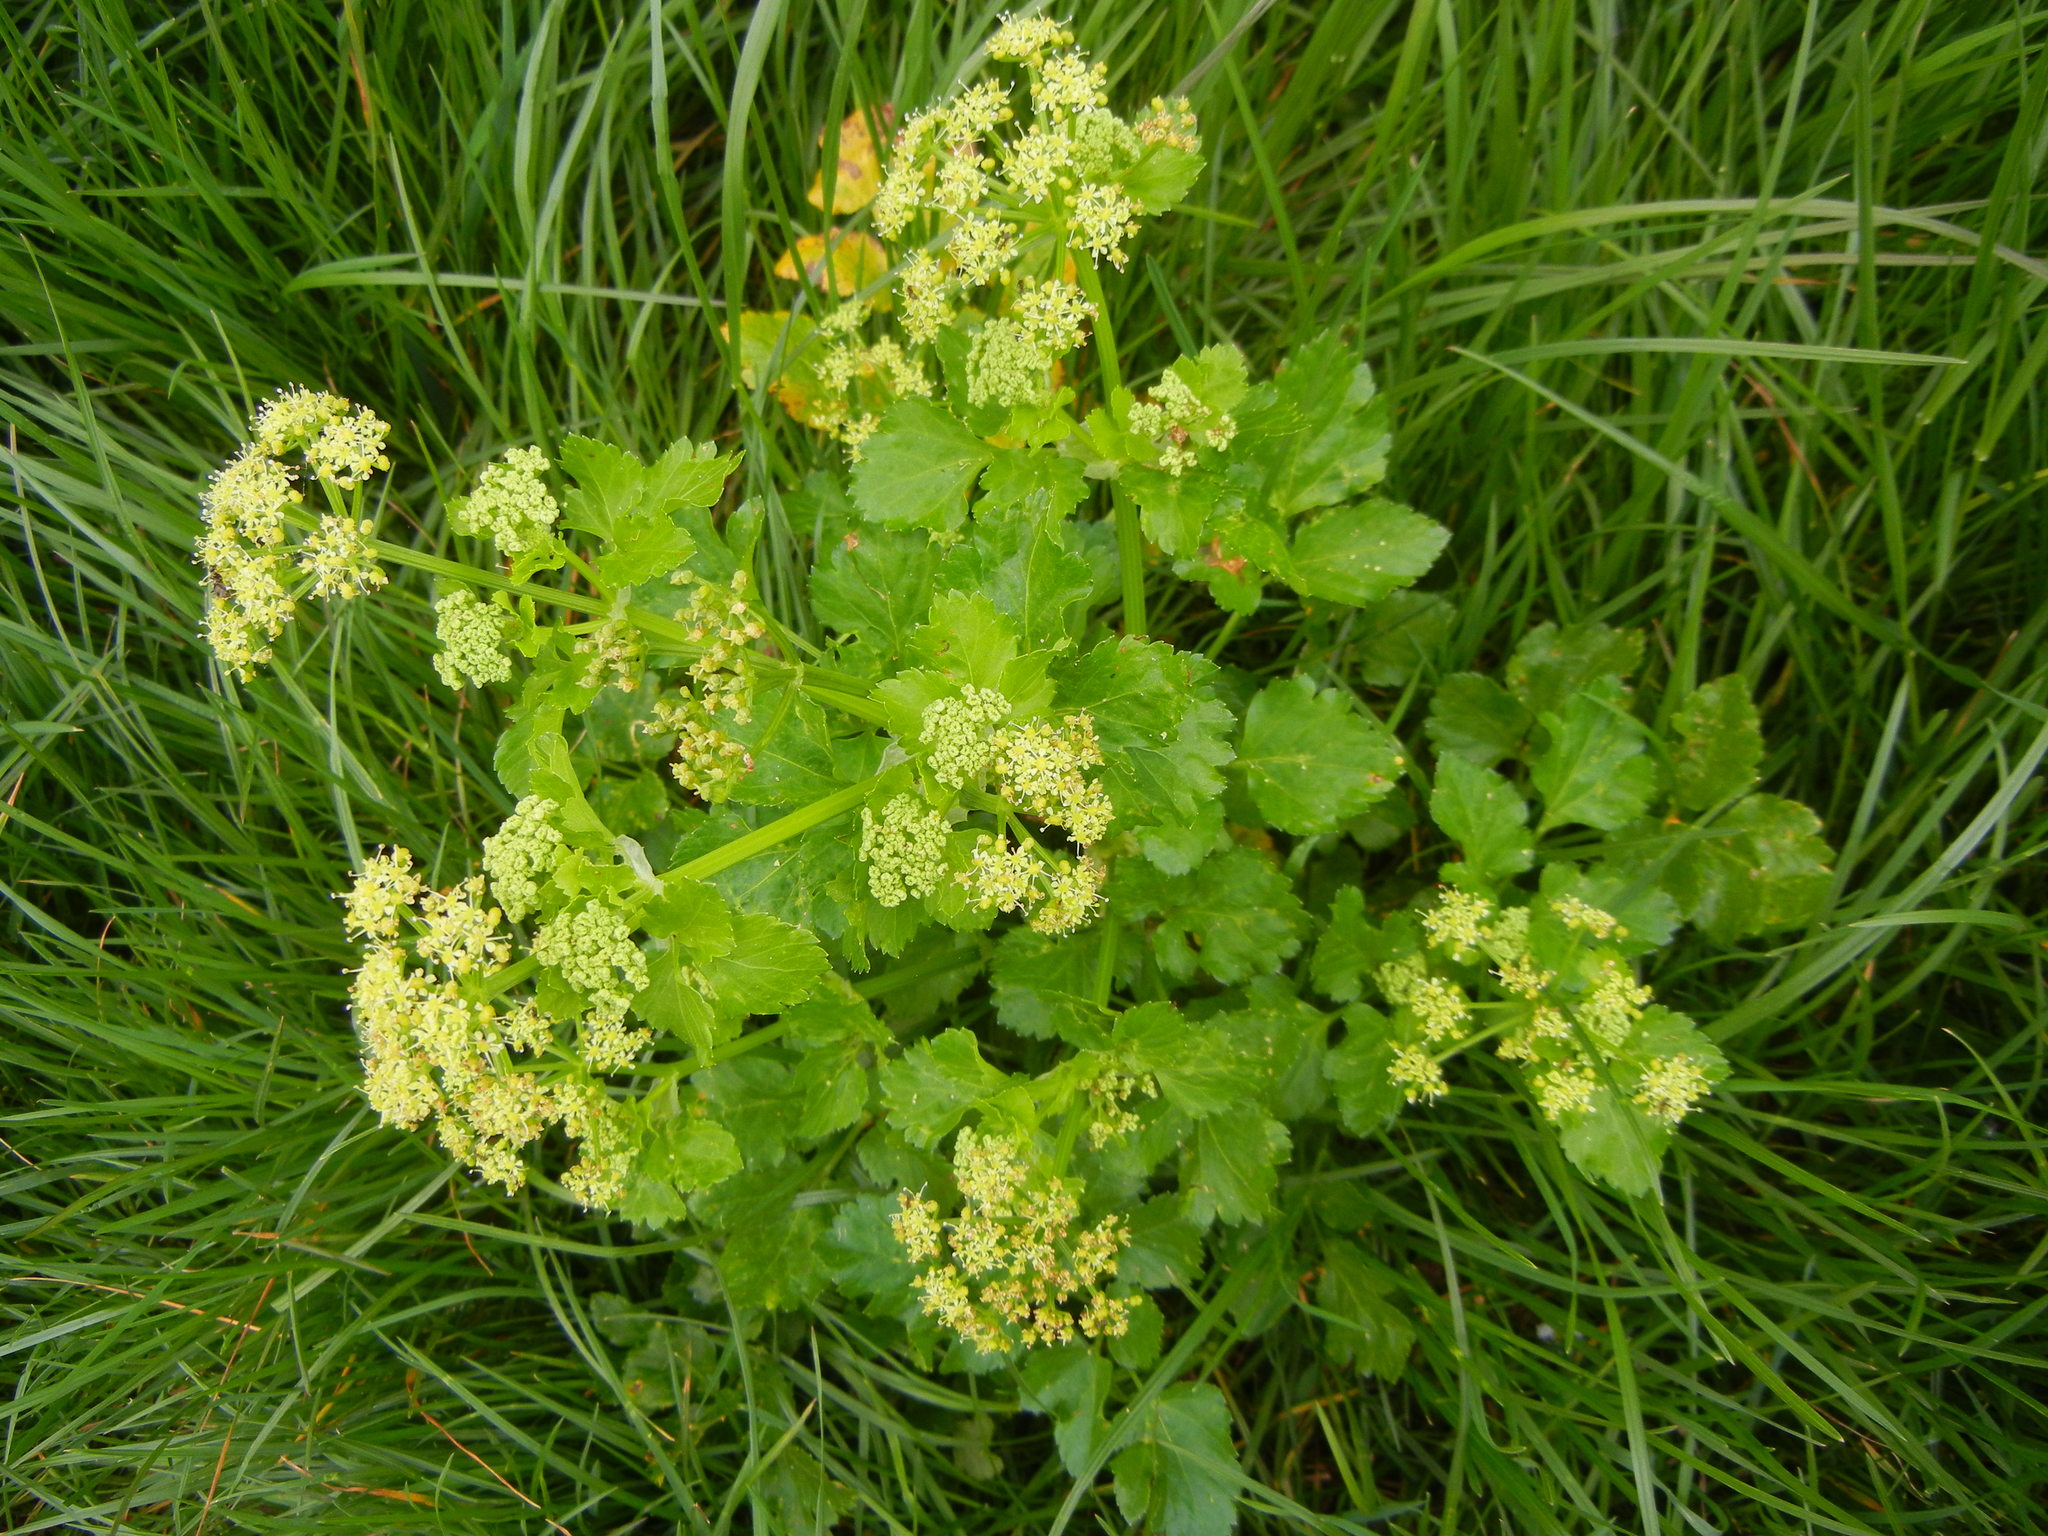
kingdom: Plantae
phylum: Tracheophyta
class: Magnoliopsida
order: Apiales
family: Apiaceae
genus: Smyrnium
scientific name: Smyrnium olusatrum
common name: Alexanders
